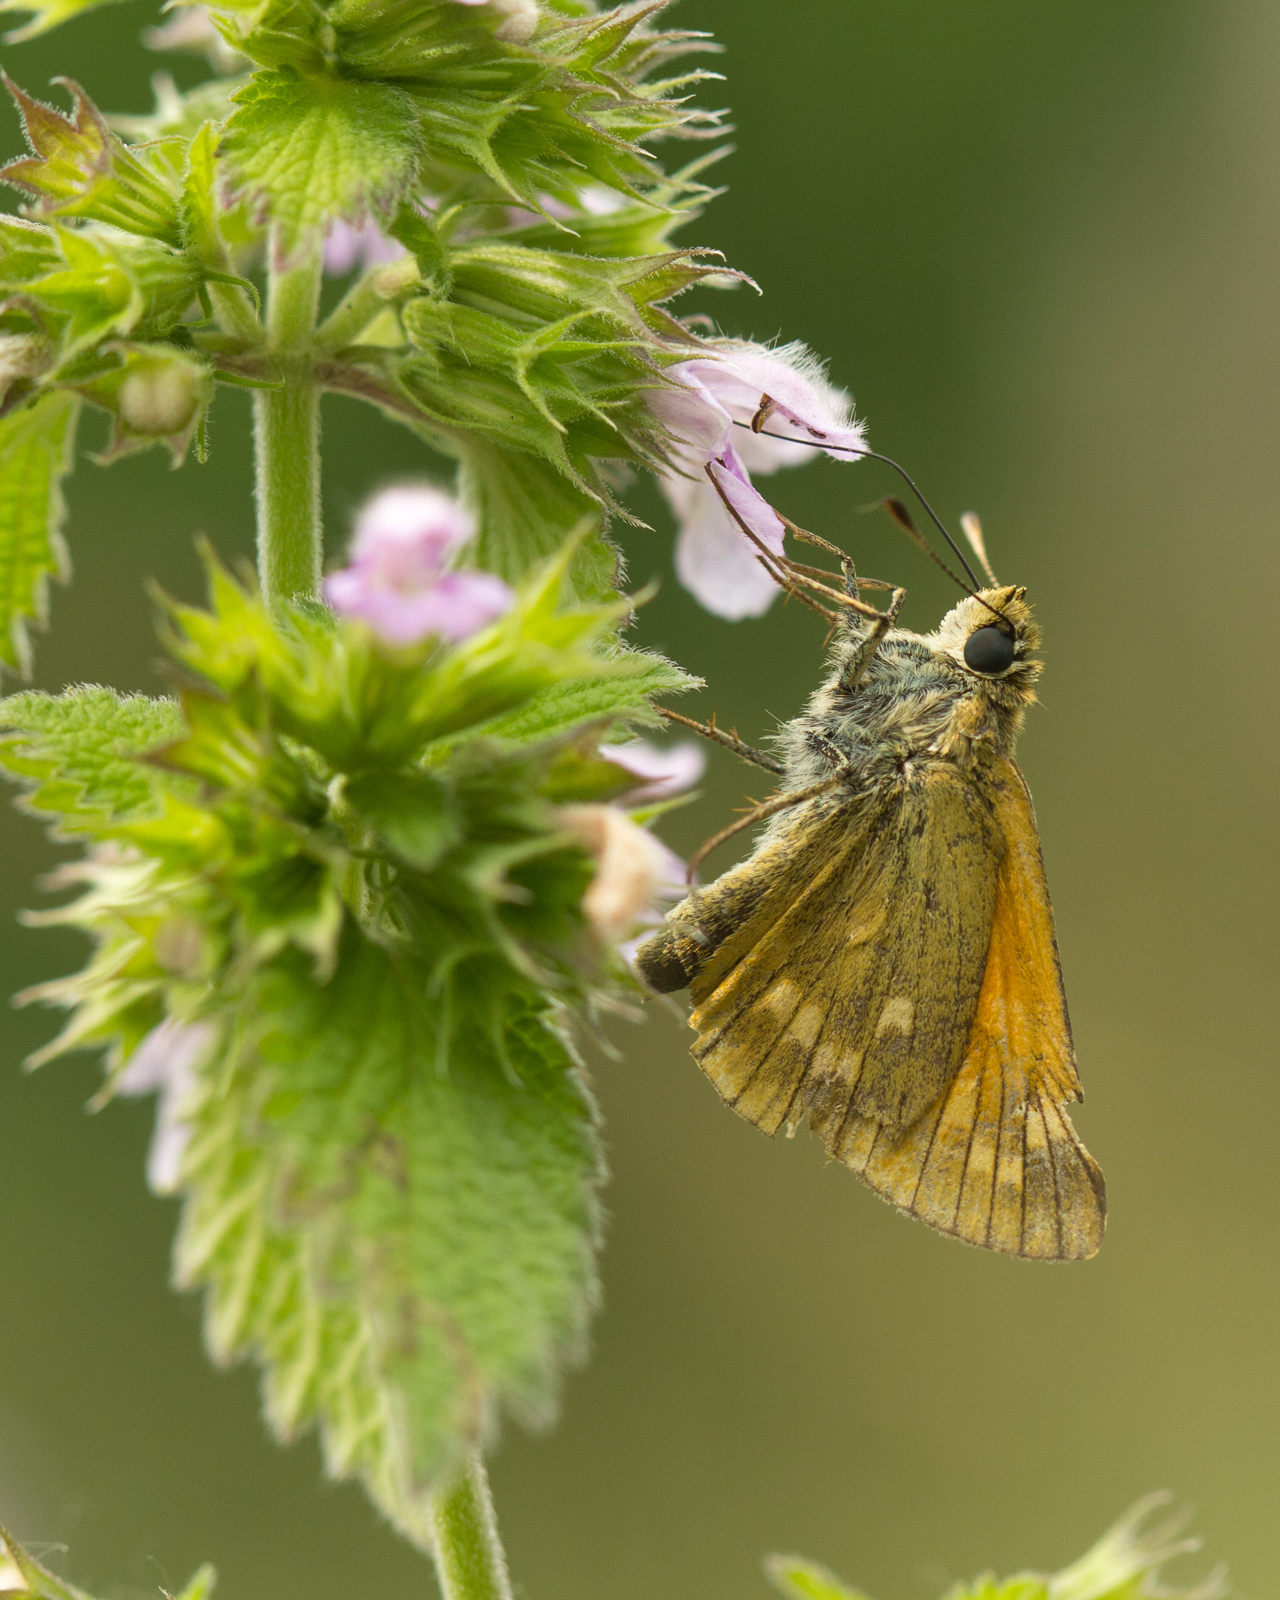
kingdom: Animalia
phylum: Arthropoda
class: Insecta
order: Lepidoptera
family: Hesperiidae
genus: Ochlodes
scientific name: Ochlodes venata
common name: Large skipper
